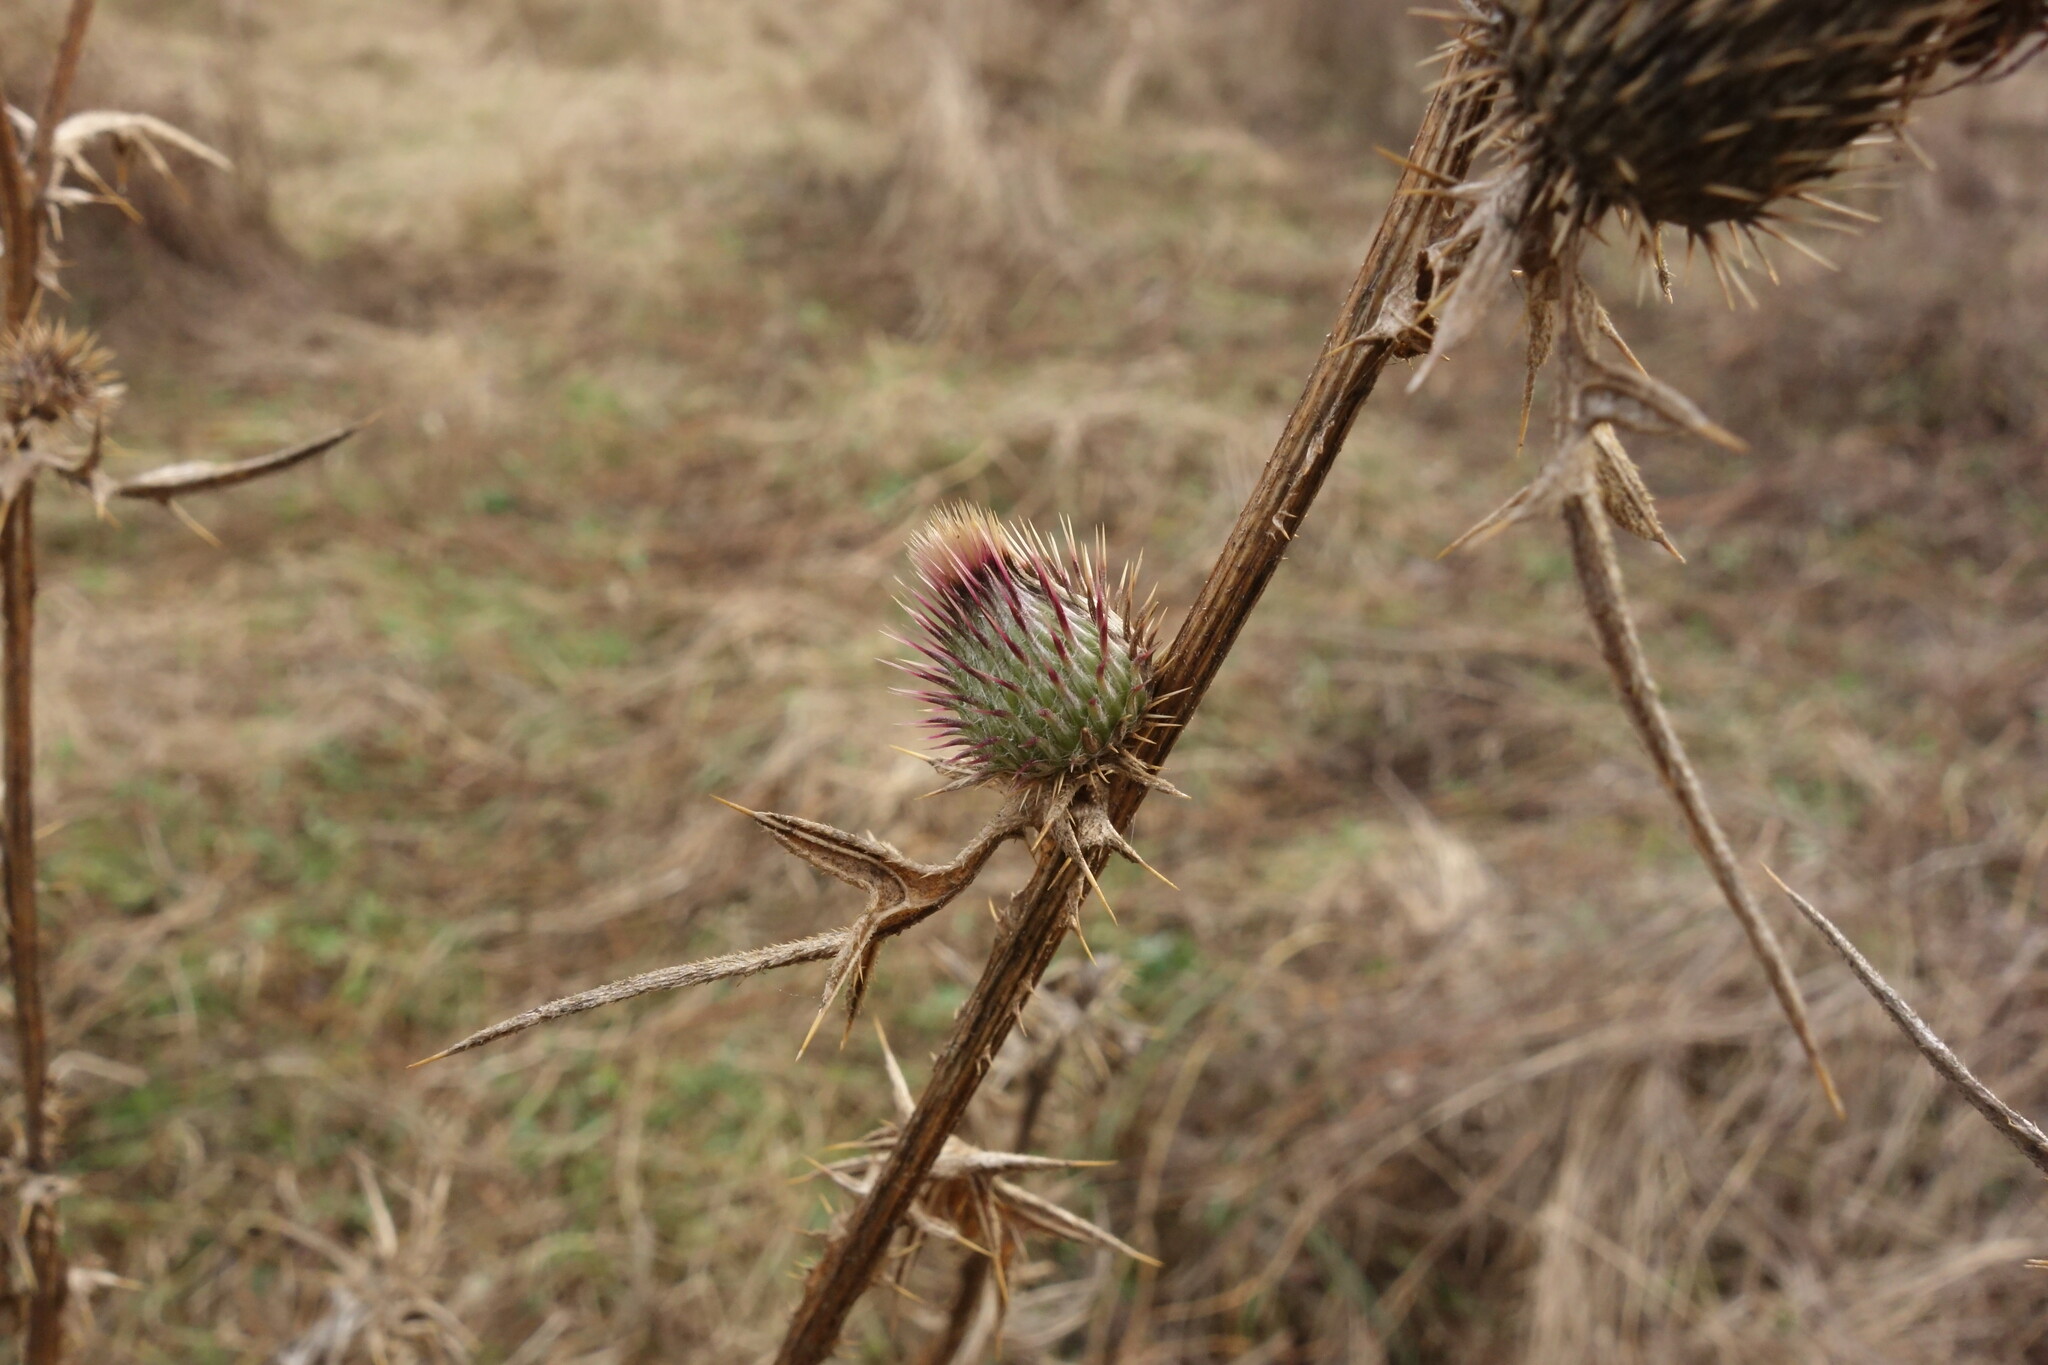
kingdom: Plantae
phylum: Tracheophyta
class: Magnoliopsida
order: Asterales
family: Asteraceae
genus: Cirsium
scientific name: Cirsium vulgare
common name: Bull thistle
